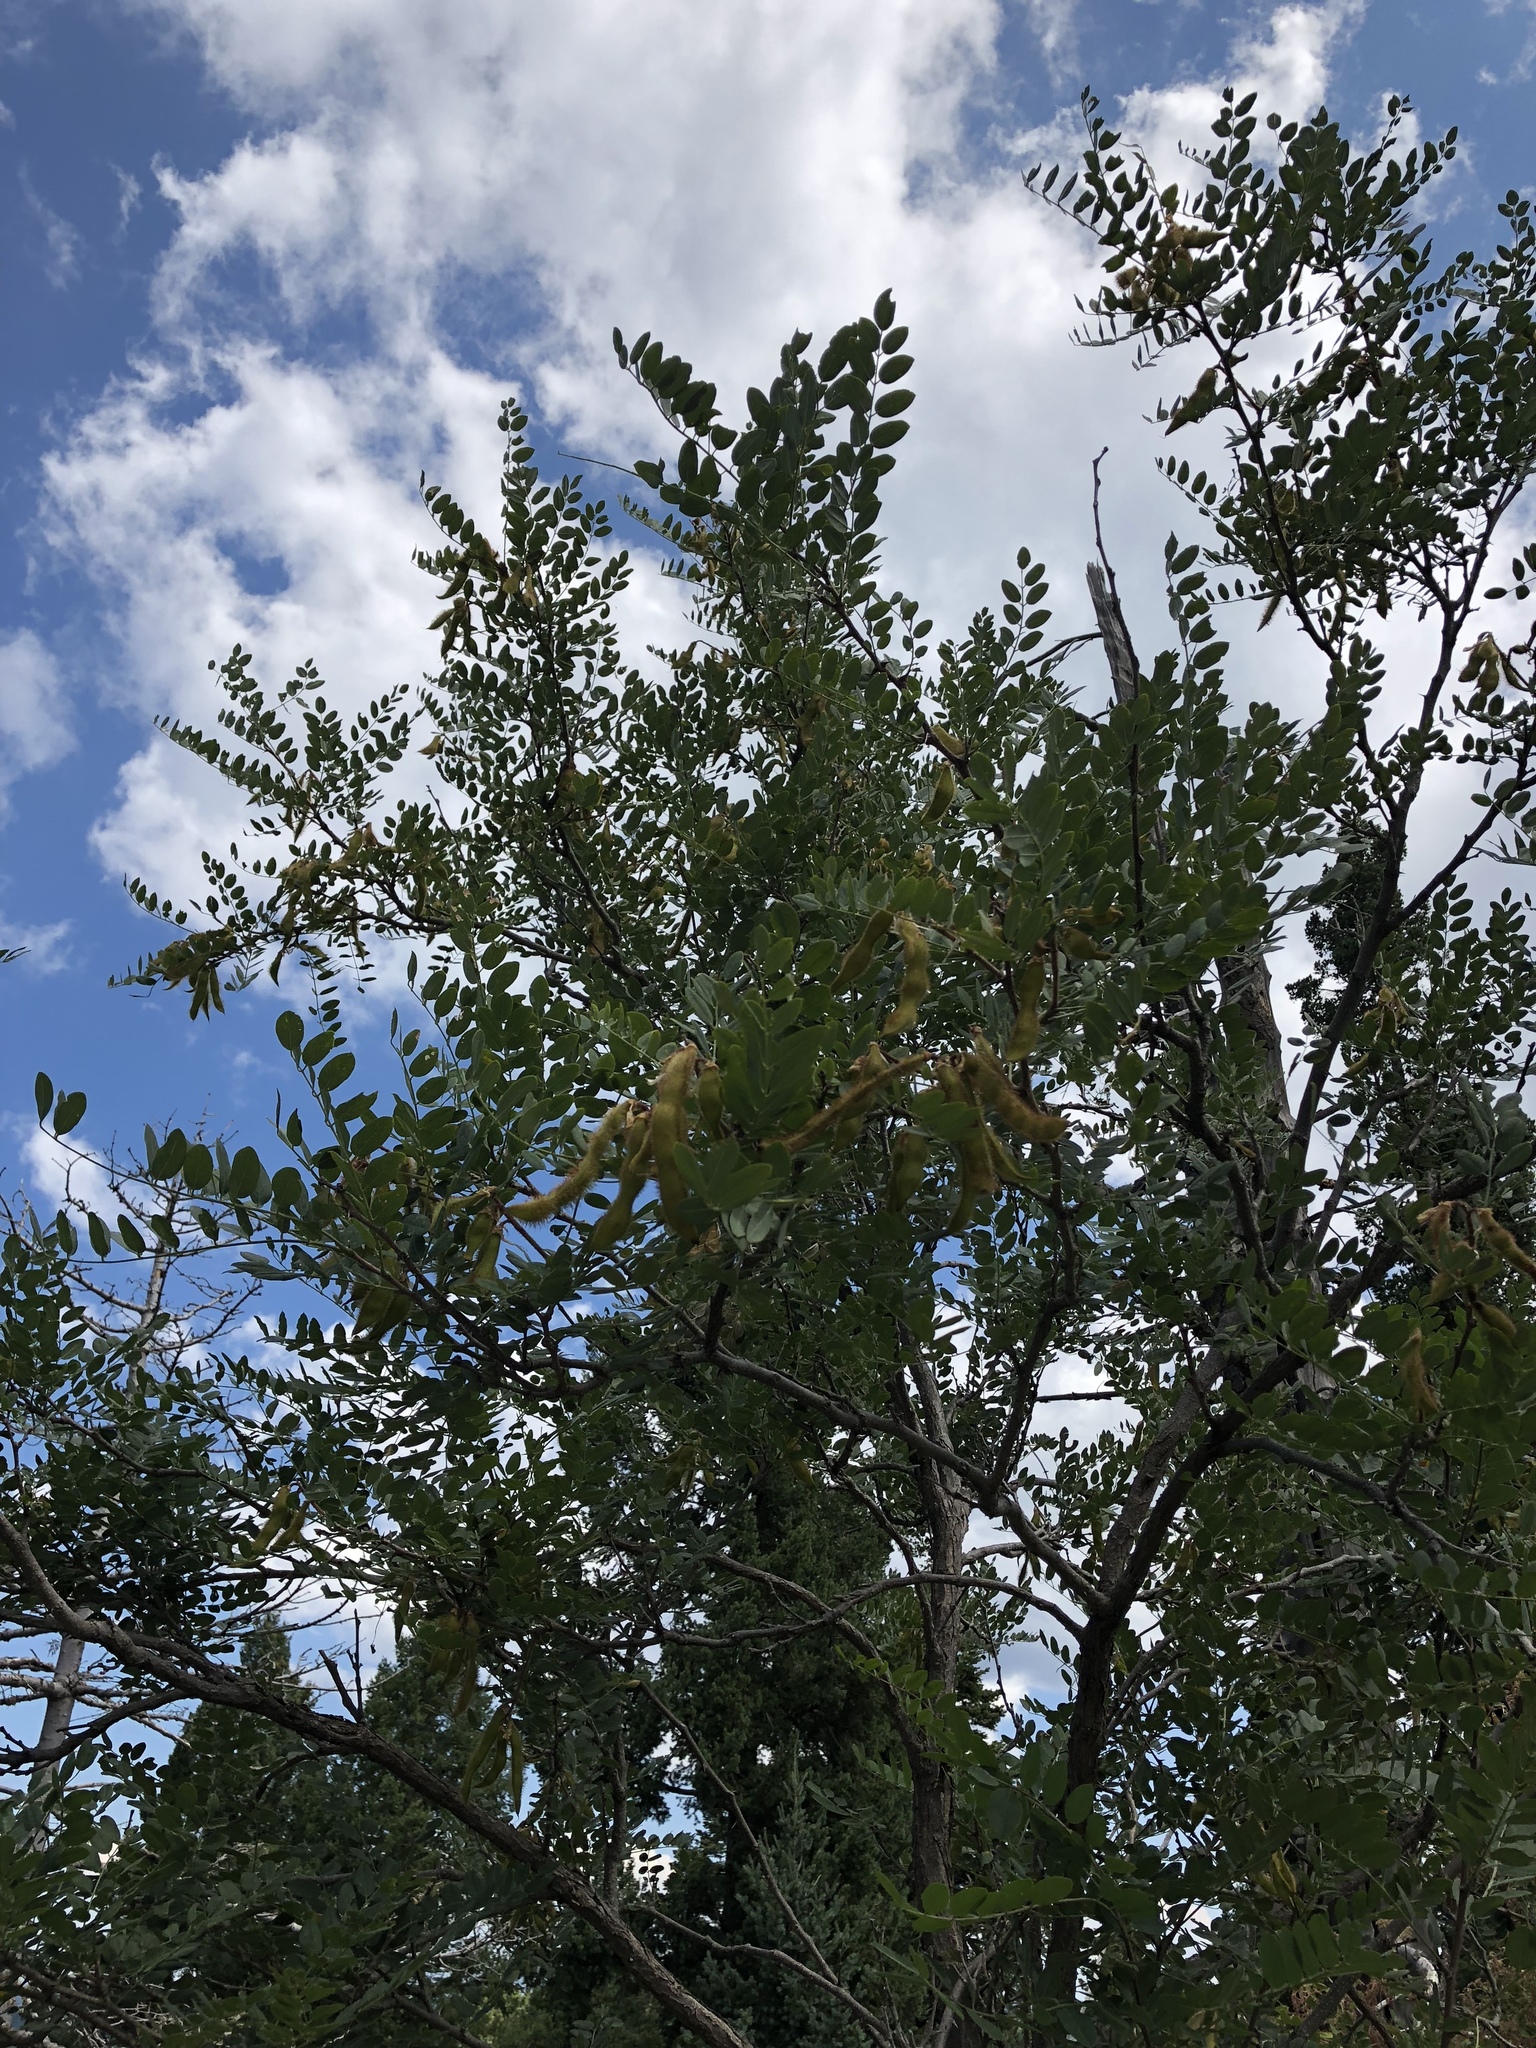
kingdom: Plantae
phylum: Tracheophyta
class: Magnoliopsida
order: Fabales
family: Fabaceae
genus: Robinia
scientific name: Robinia neomexicana
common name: New mexico locust
